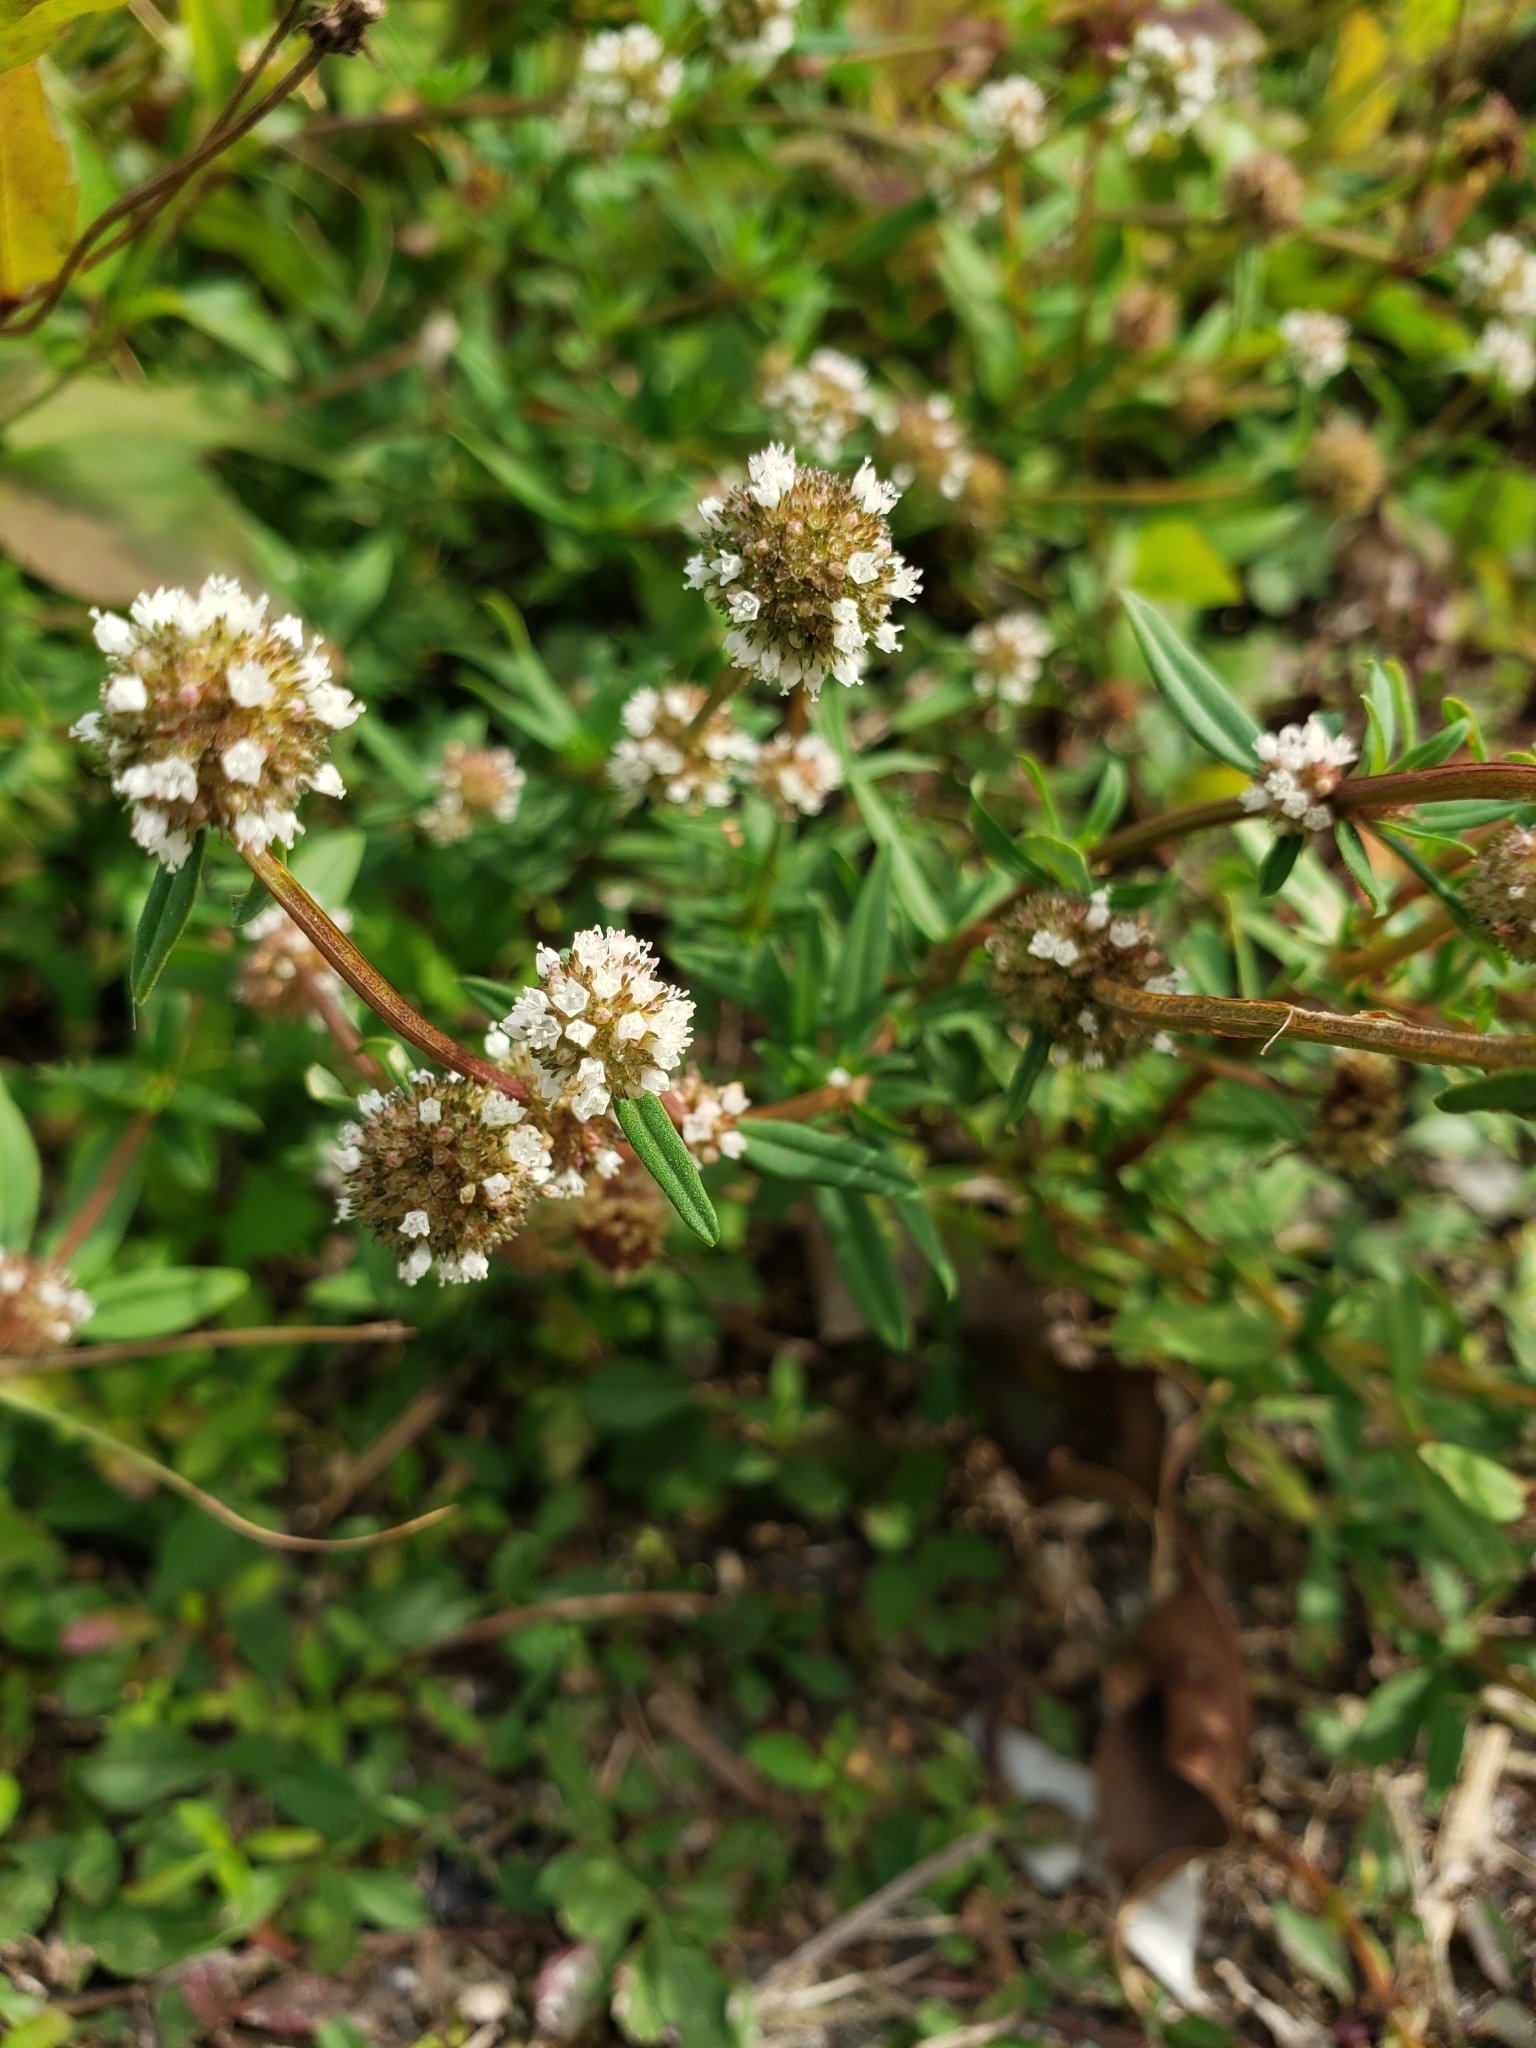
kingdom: Plantae
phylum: Tracheophyta
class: Magnoliopsida
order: Gentianales
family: Rubiaceae
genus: Spermacoce
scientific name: Spermacoce verticillata
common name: Shrubby false buttonweed
